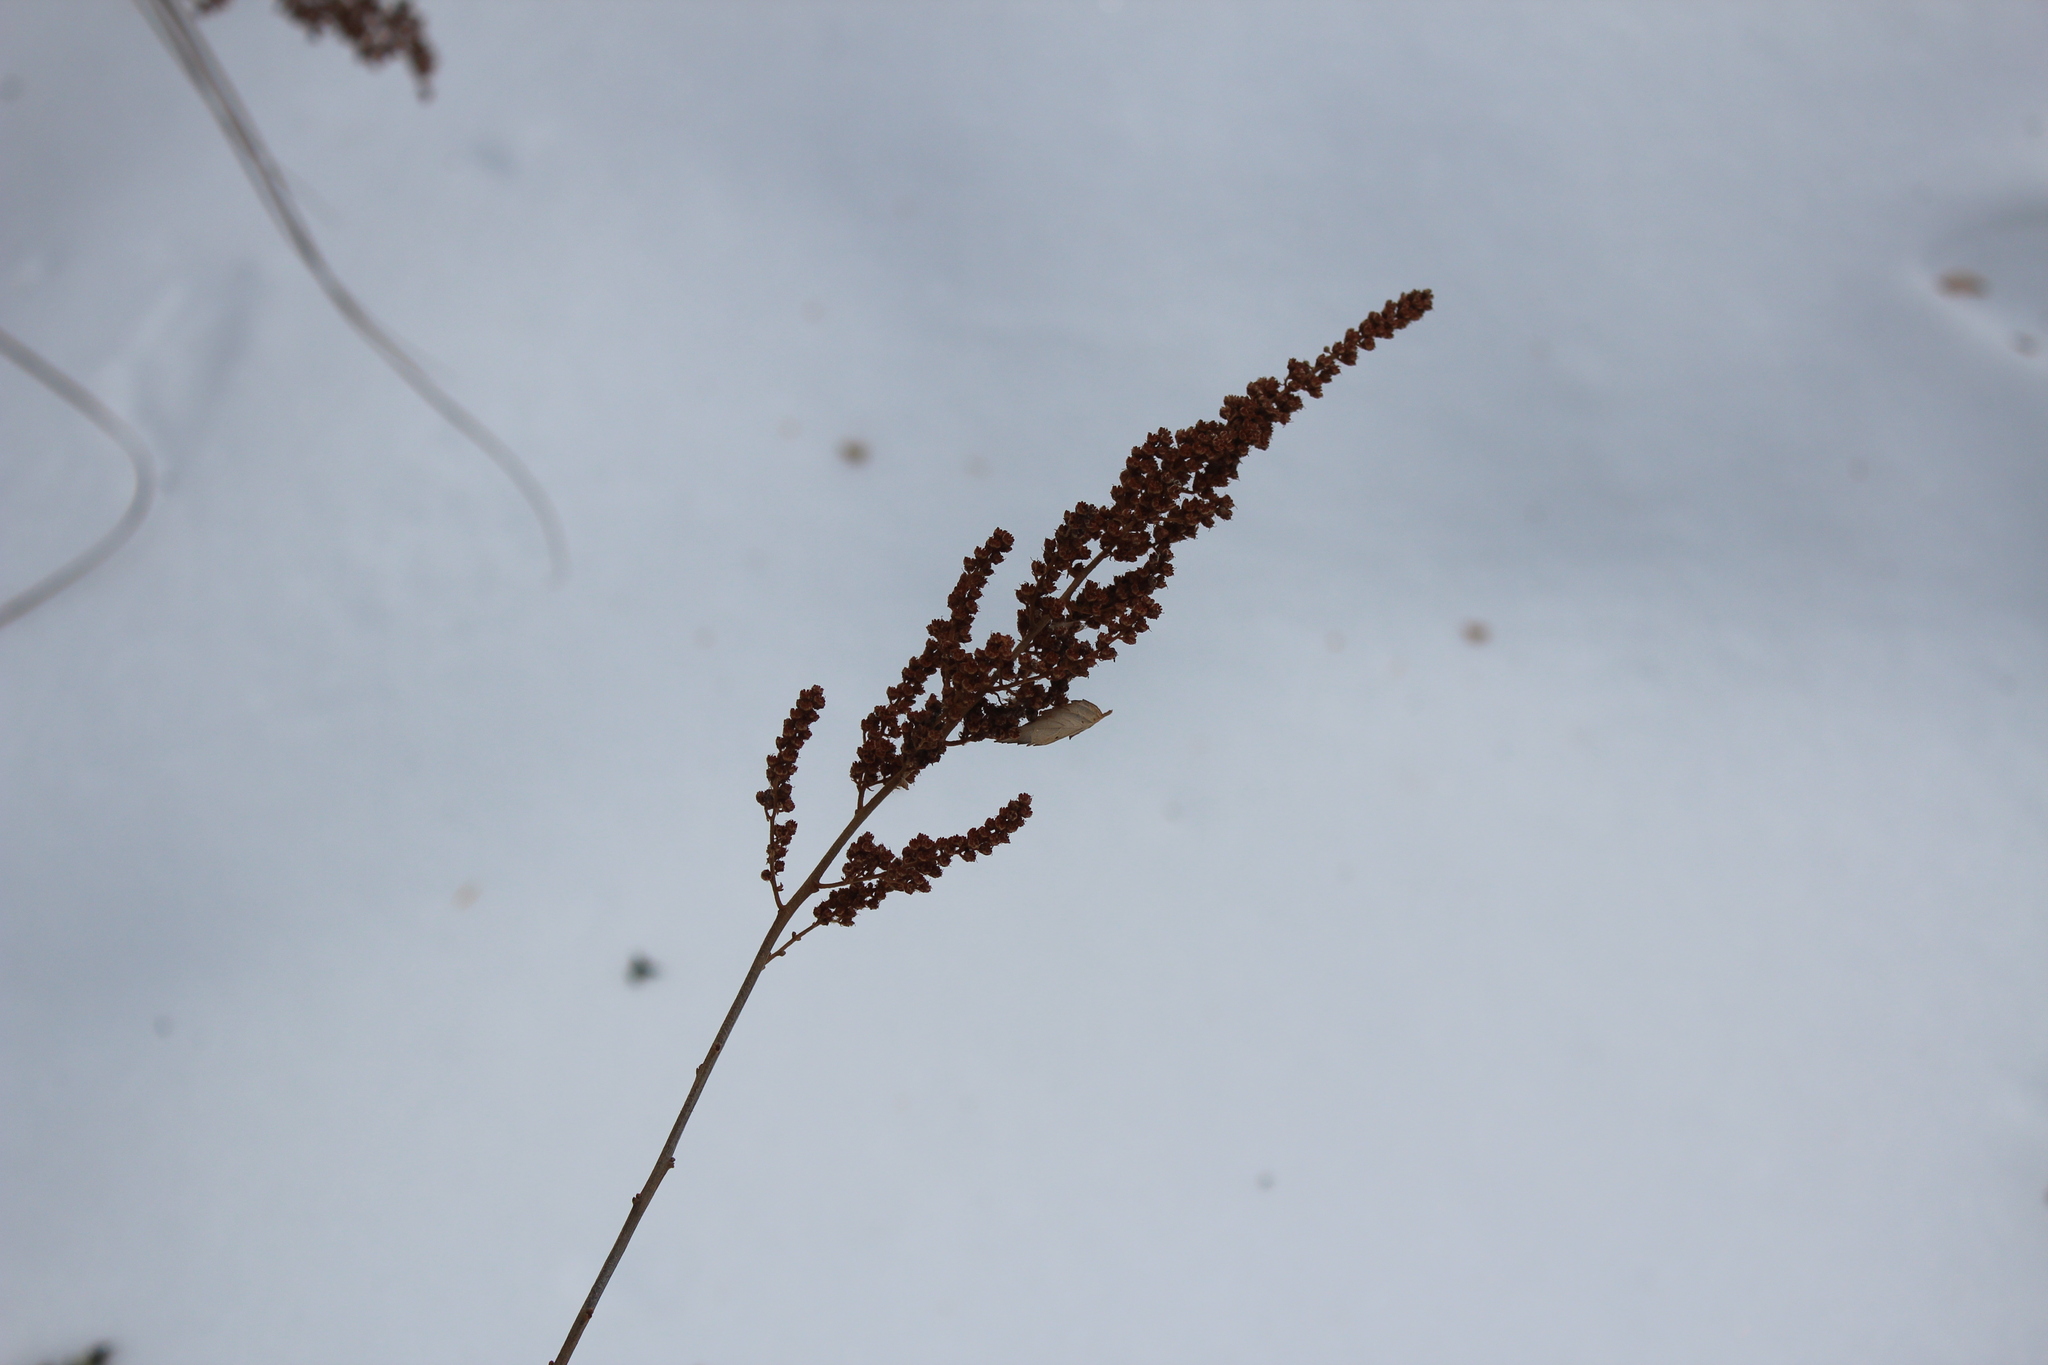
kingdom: Plantae
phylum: Tracheophyta
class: Magnoliopsida
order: Rosales
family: Rosaceae
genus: Spiraea
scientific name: Spiraea tomentosa
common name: Hardhack
